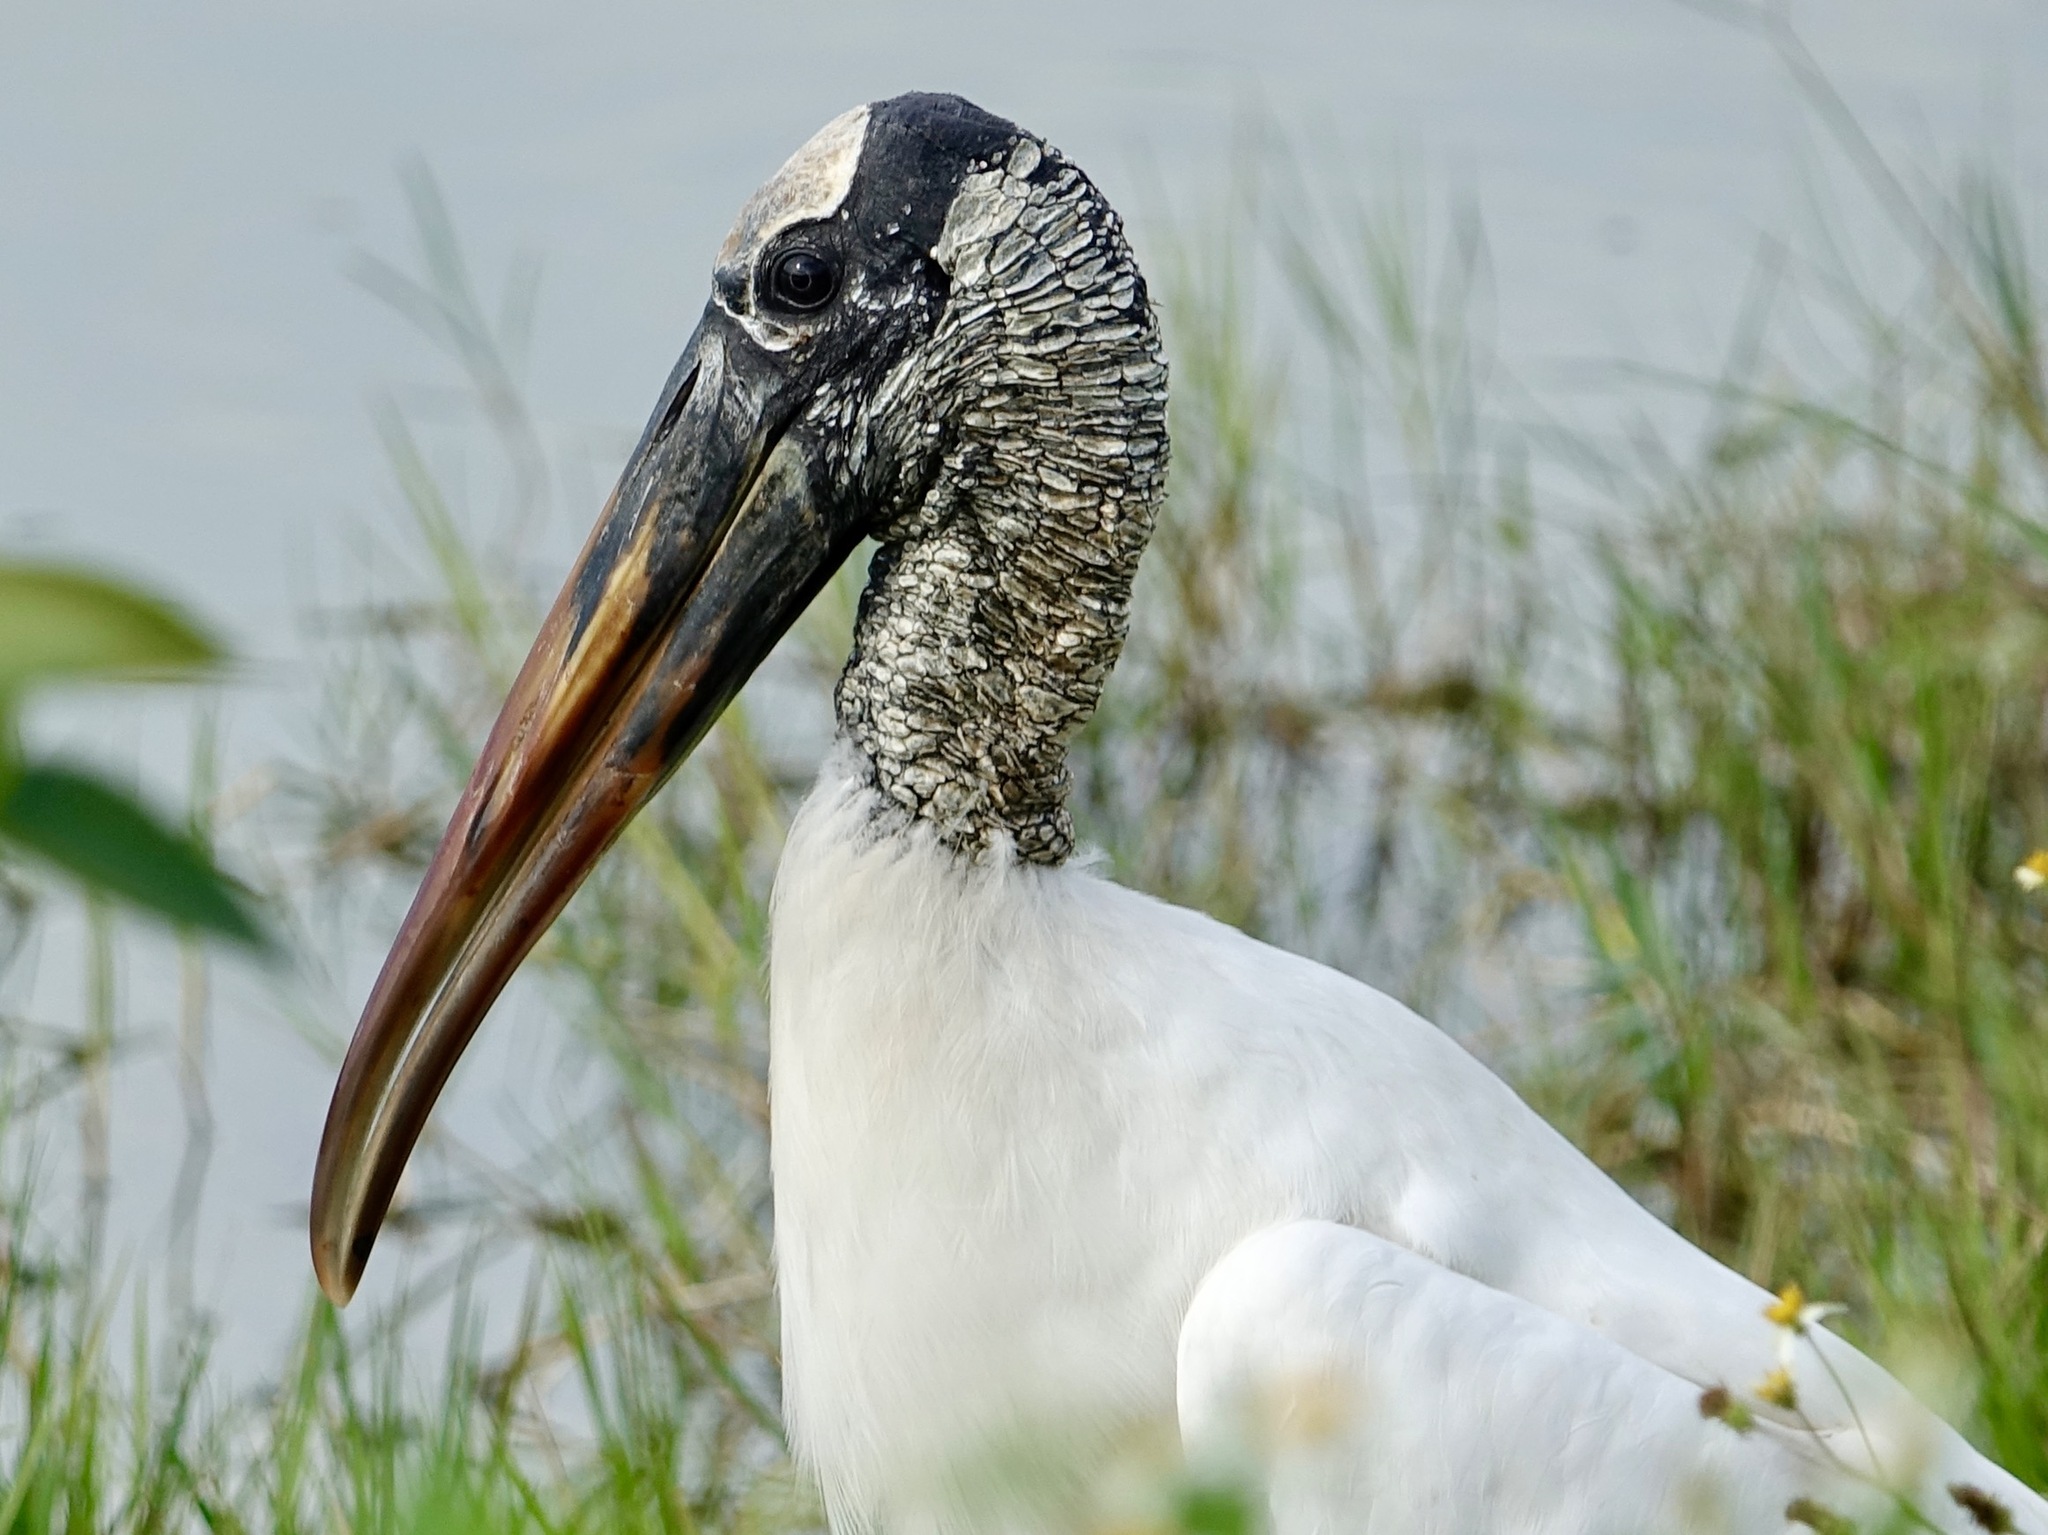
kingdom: Animalia
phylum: Chordata
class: Aves
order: Ciconiiformes
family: Ciconiidae
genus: Mycteria
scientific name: Mycteria americana
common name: Wood stork
